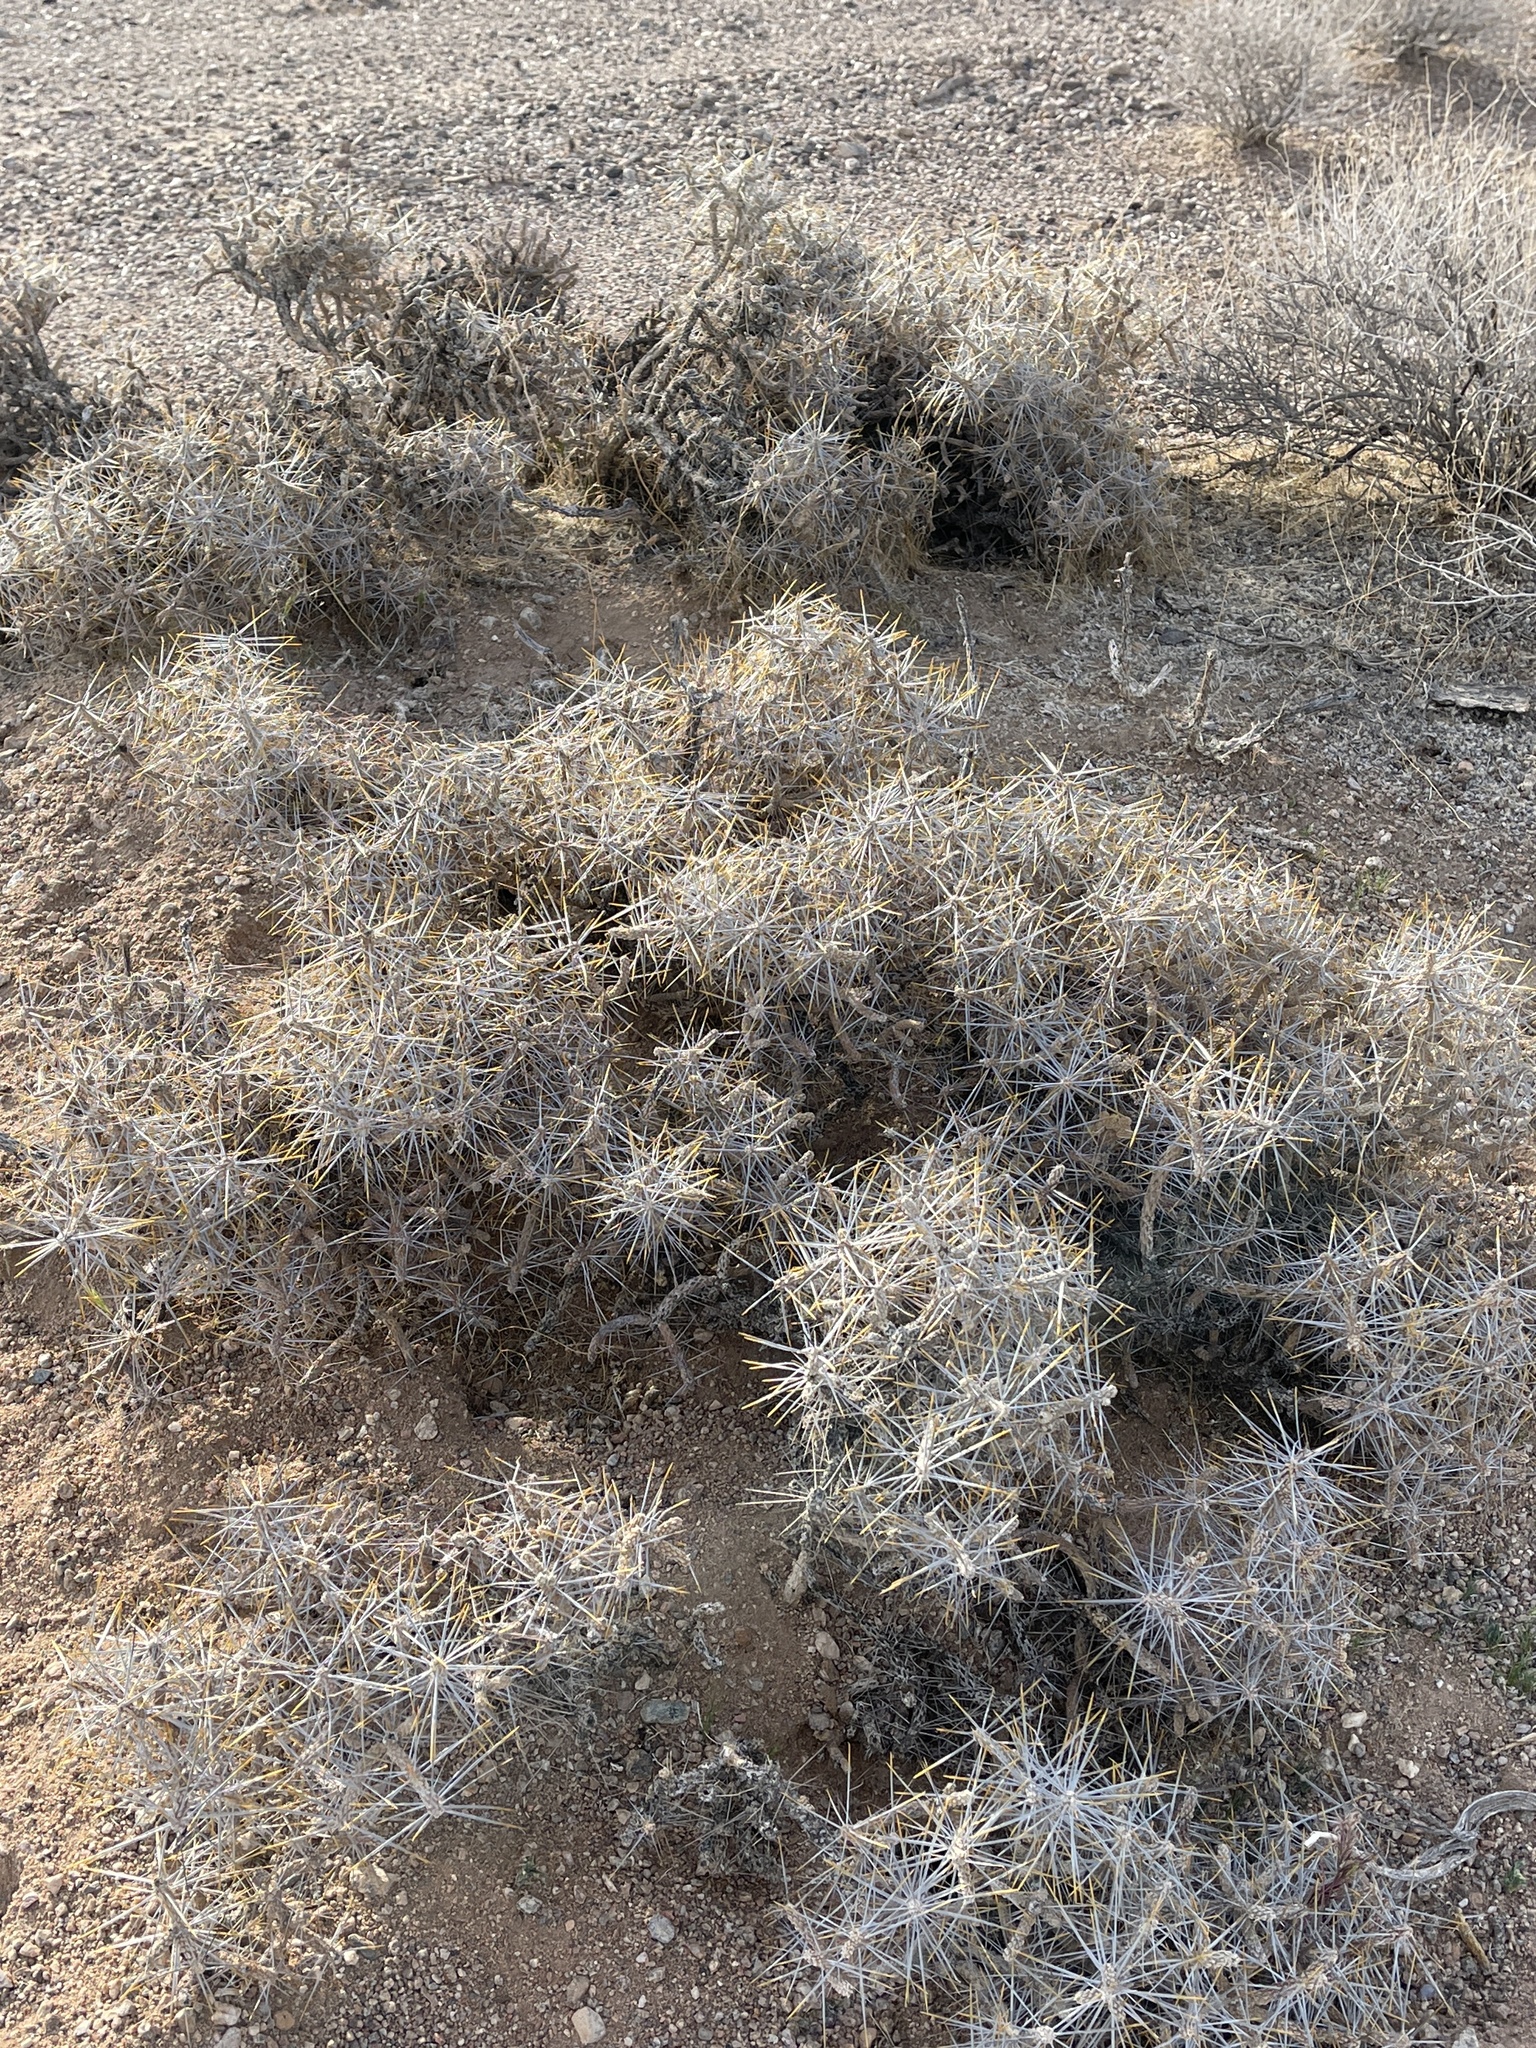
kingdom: Plantae
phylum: Tracheophyta
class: Magnoliopsida
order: Caryophyllales
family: Cactaceae
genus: Cylindropuntia
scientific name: Cylindropuntia ramosissima
